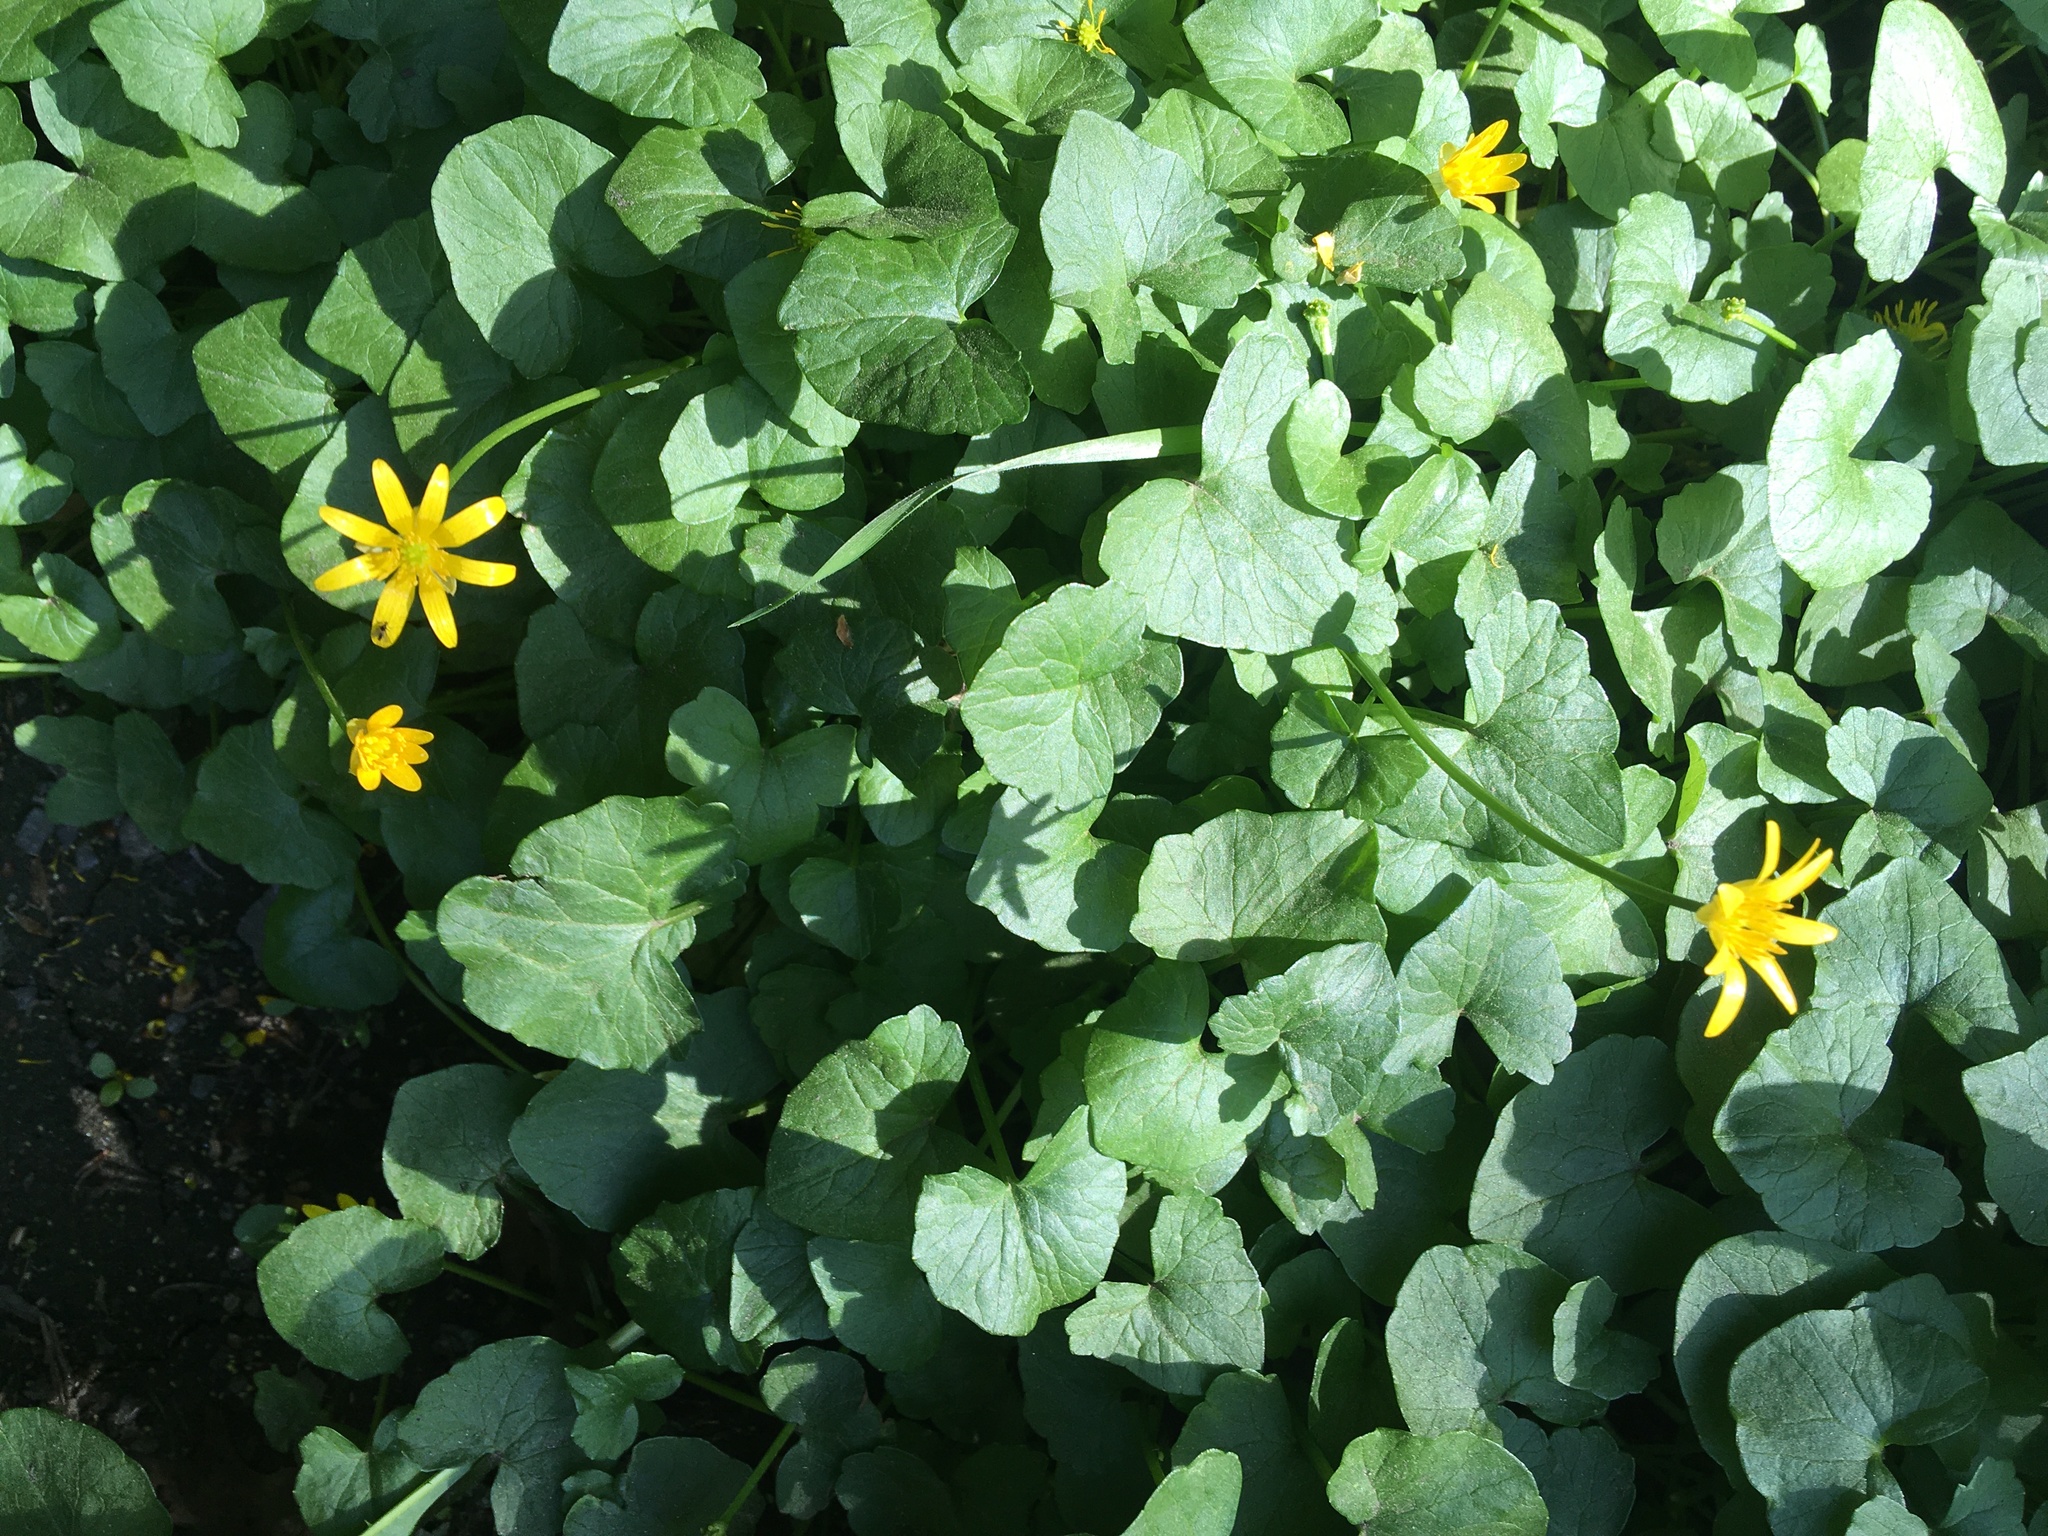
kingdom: Plantae
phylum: Tracheophyta
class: Magnoliopsida
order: Ranunculales
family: Ranunculaceae
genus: Ficaria
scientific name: Ficaria verna
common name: Lesser celandine
